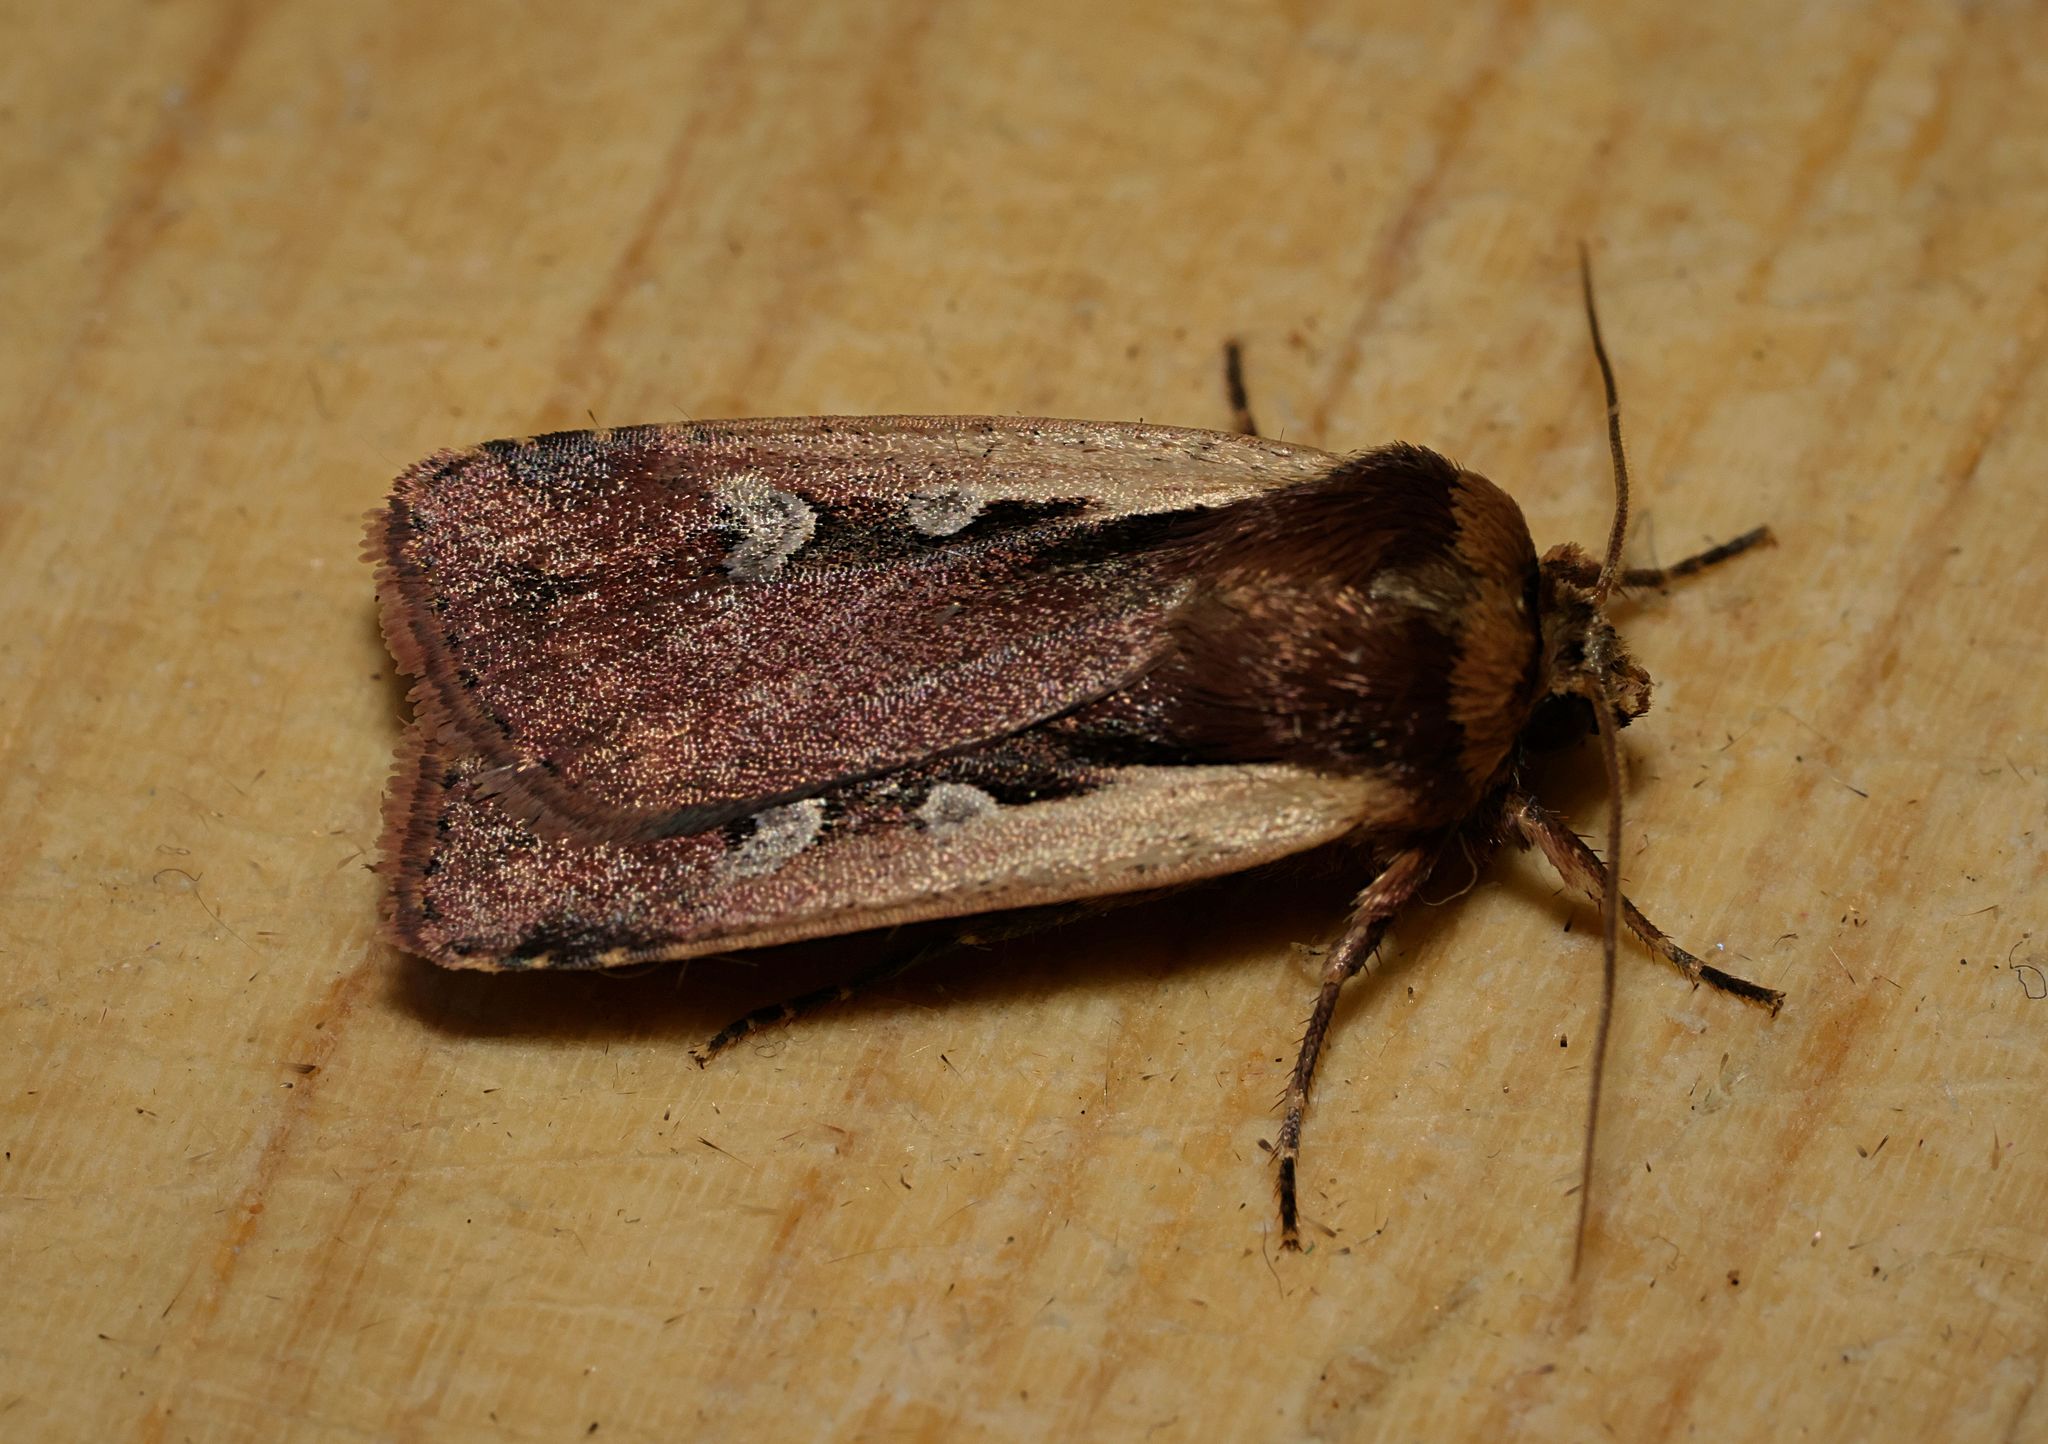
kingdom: Animalia
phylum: Arthropoda
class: Insecta
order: Lepidoptera
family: Noctuidae
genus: Ochropleura
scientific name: Ochropleura plecta
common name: Flame shoulder
